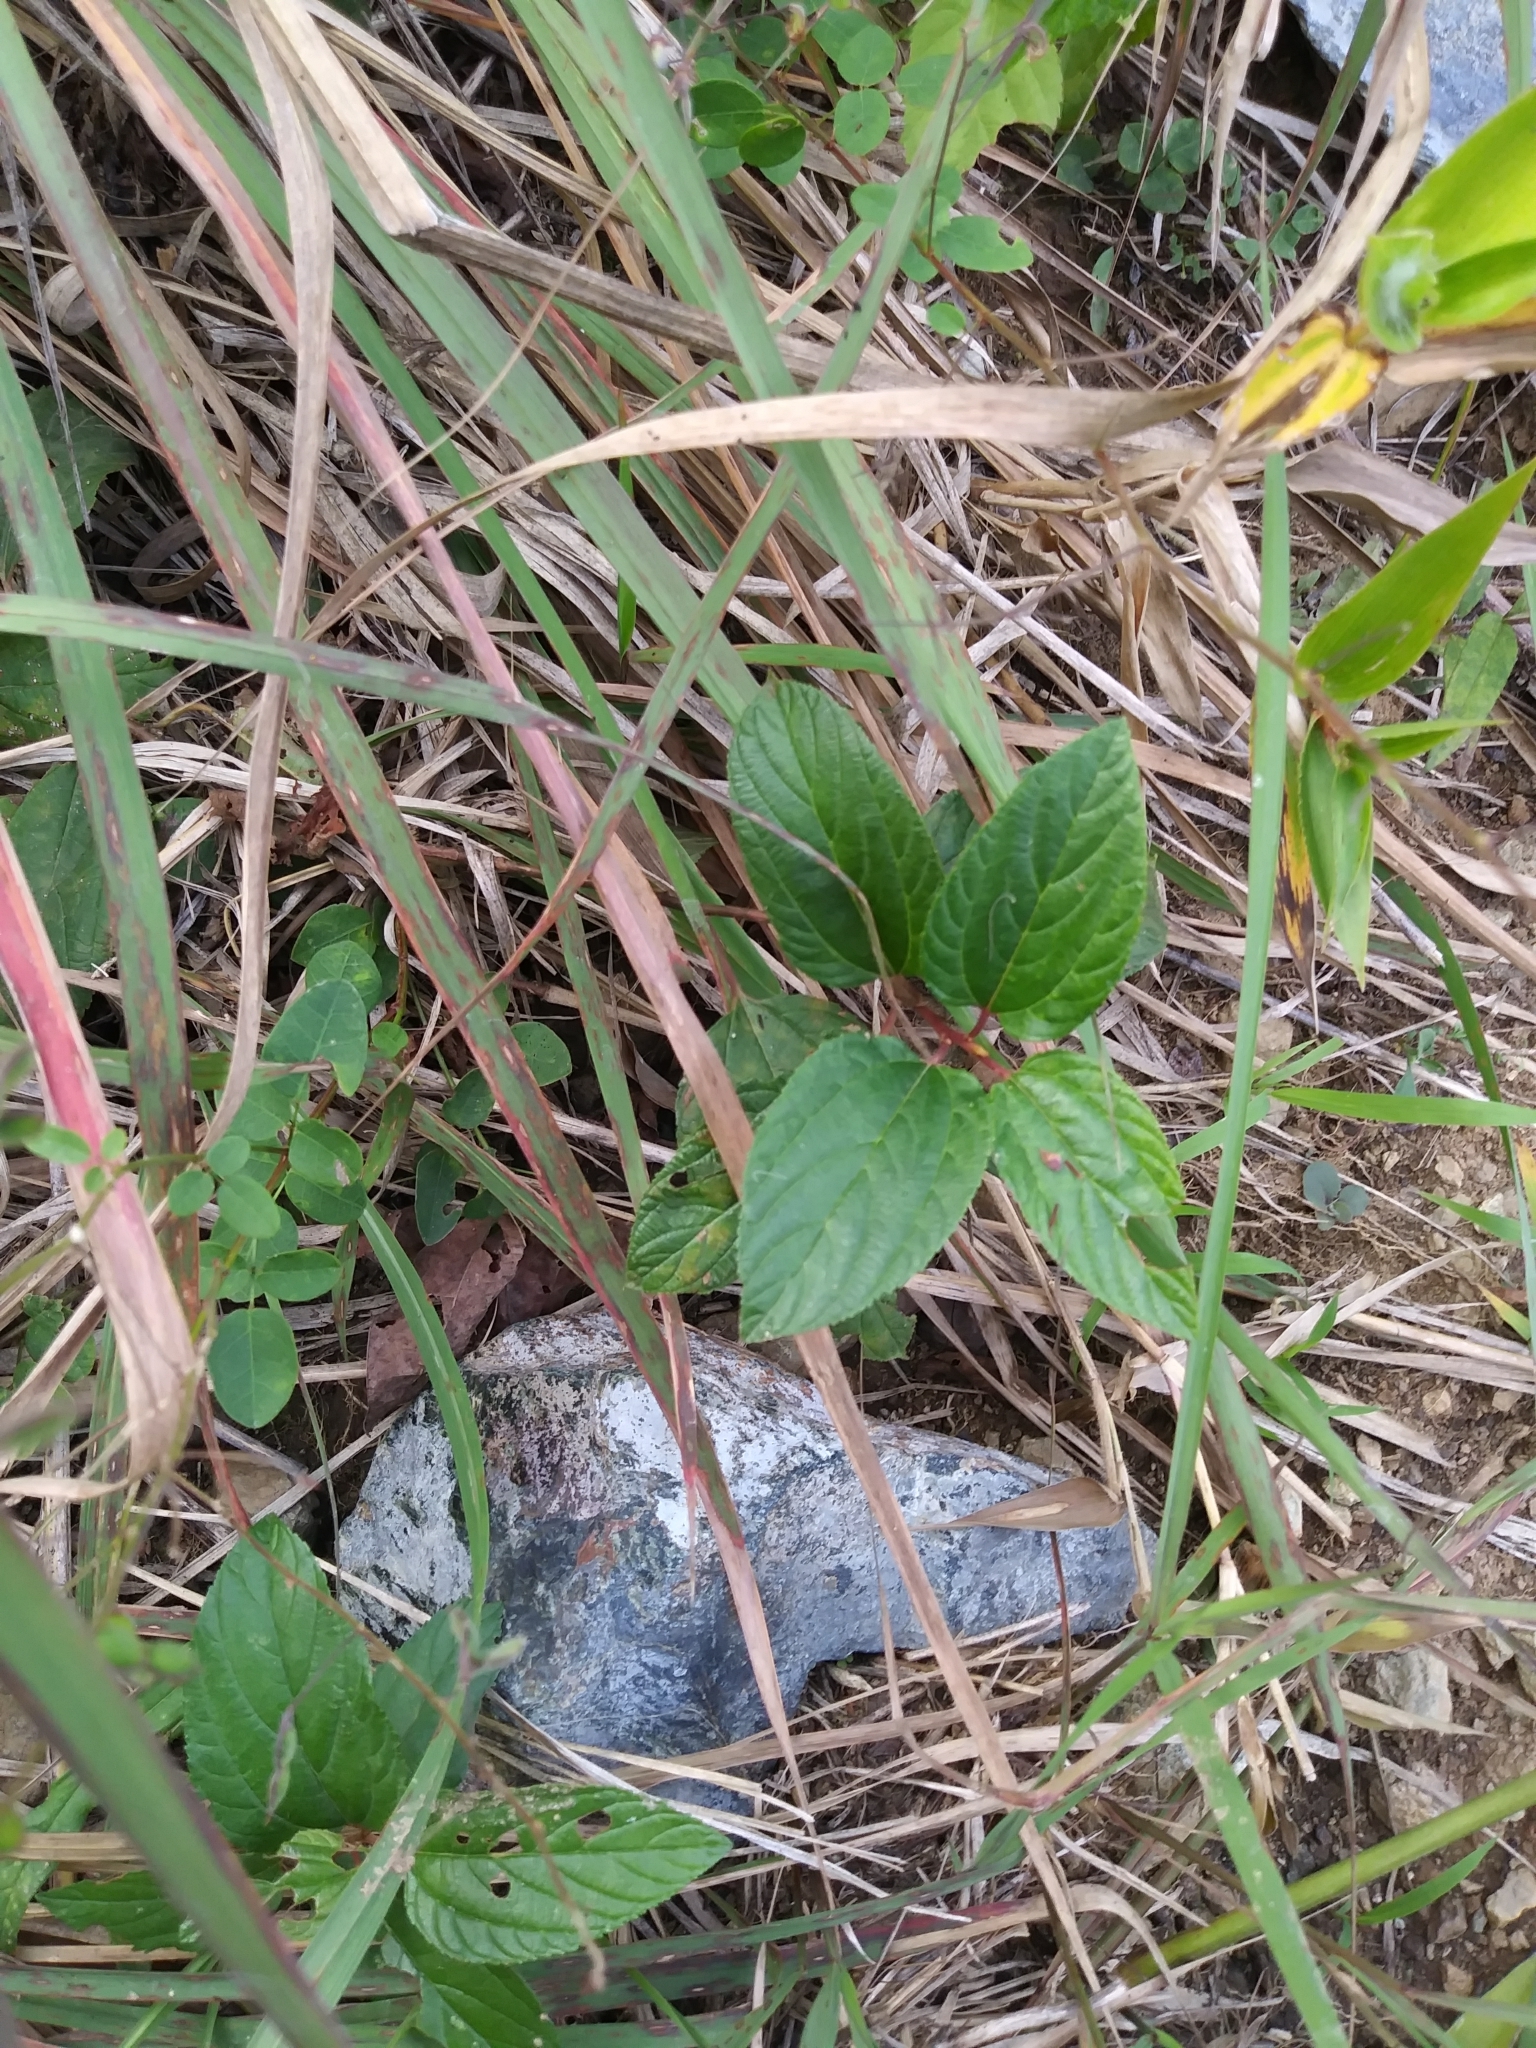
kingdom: Plantae
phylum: Tracheophyta
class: Magnoliopsida
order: Rosales
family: Rhamnaceae
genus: Ceanothus
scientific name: Ceanothus americanus
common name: Redroot
